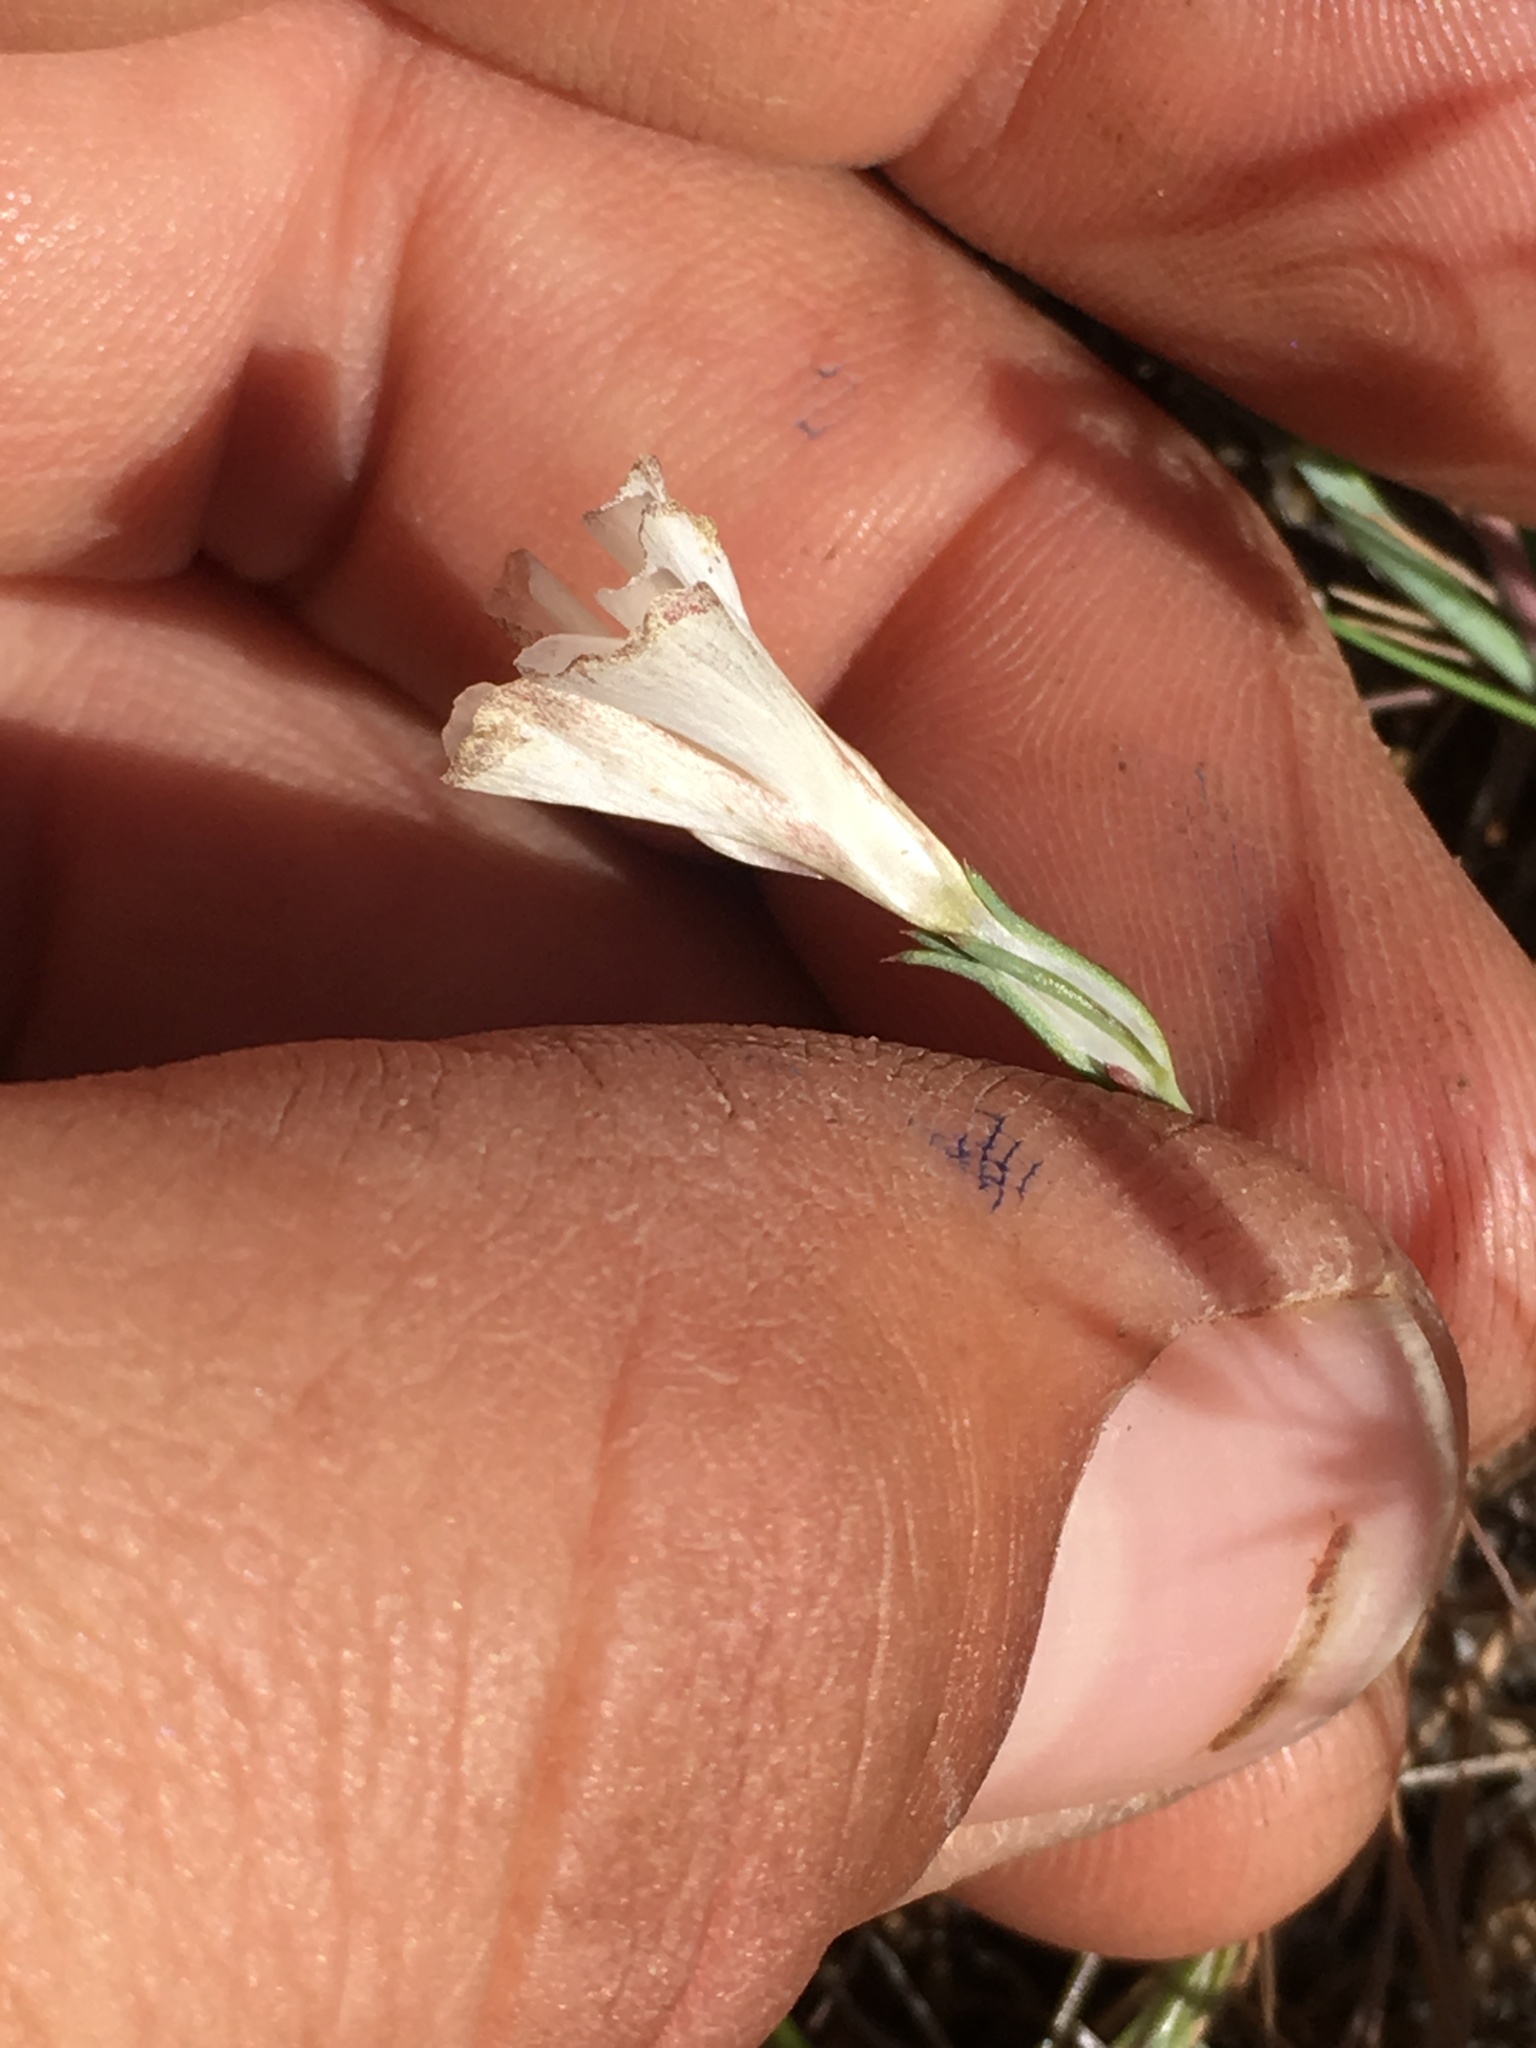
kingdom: Plantae
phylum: Tracheophyta
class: Magnoliopsida
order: Ericales
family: Polemoniaceae
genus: Linanthus
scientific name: Linanthus dichotomus
